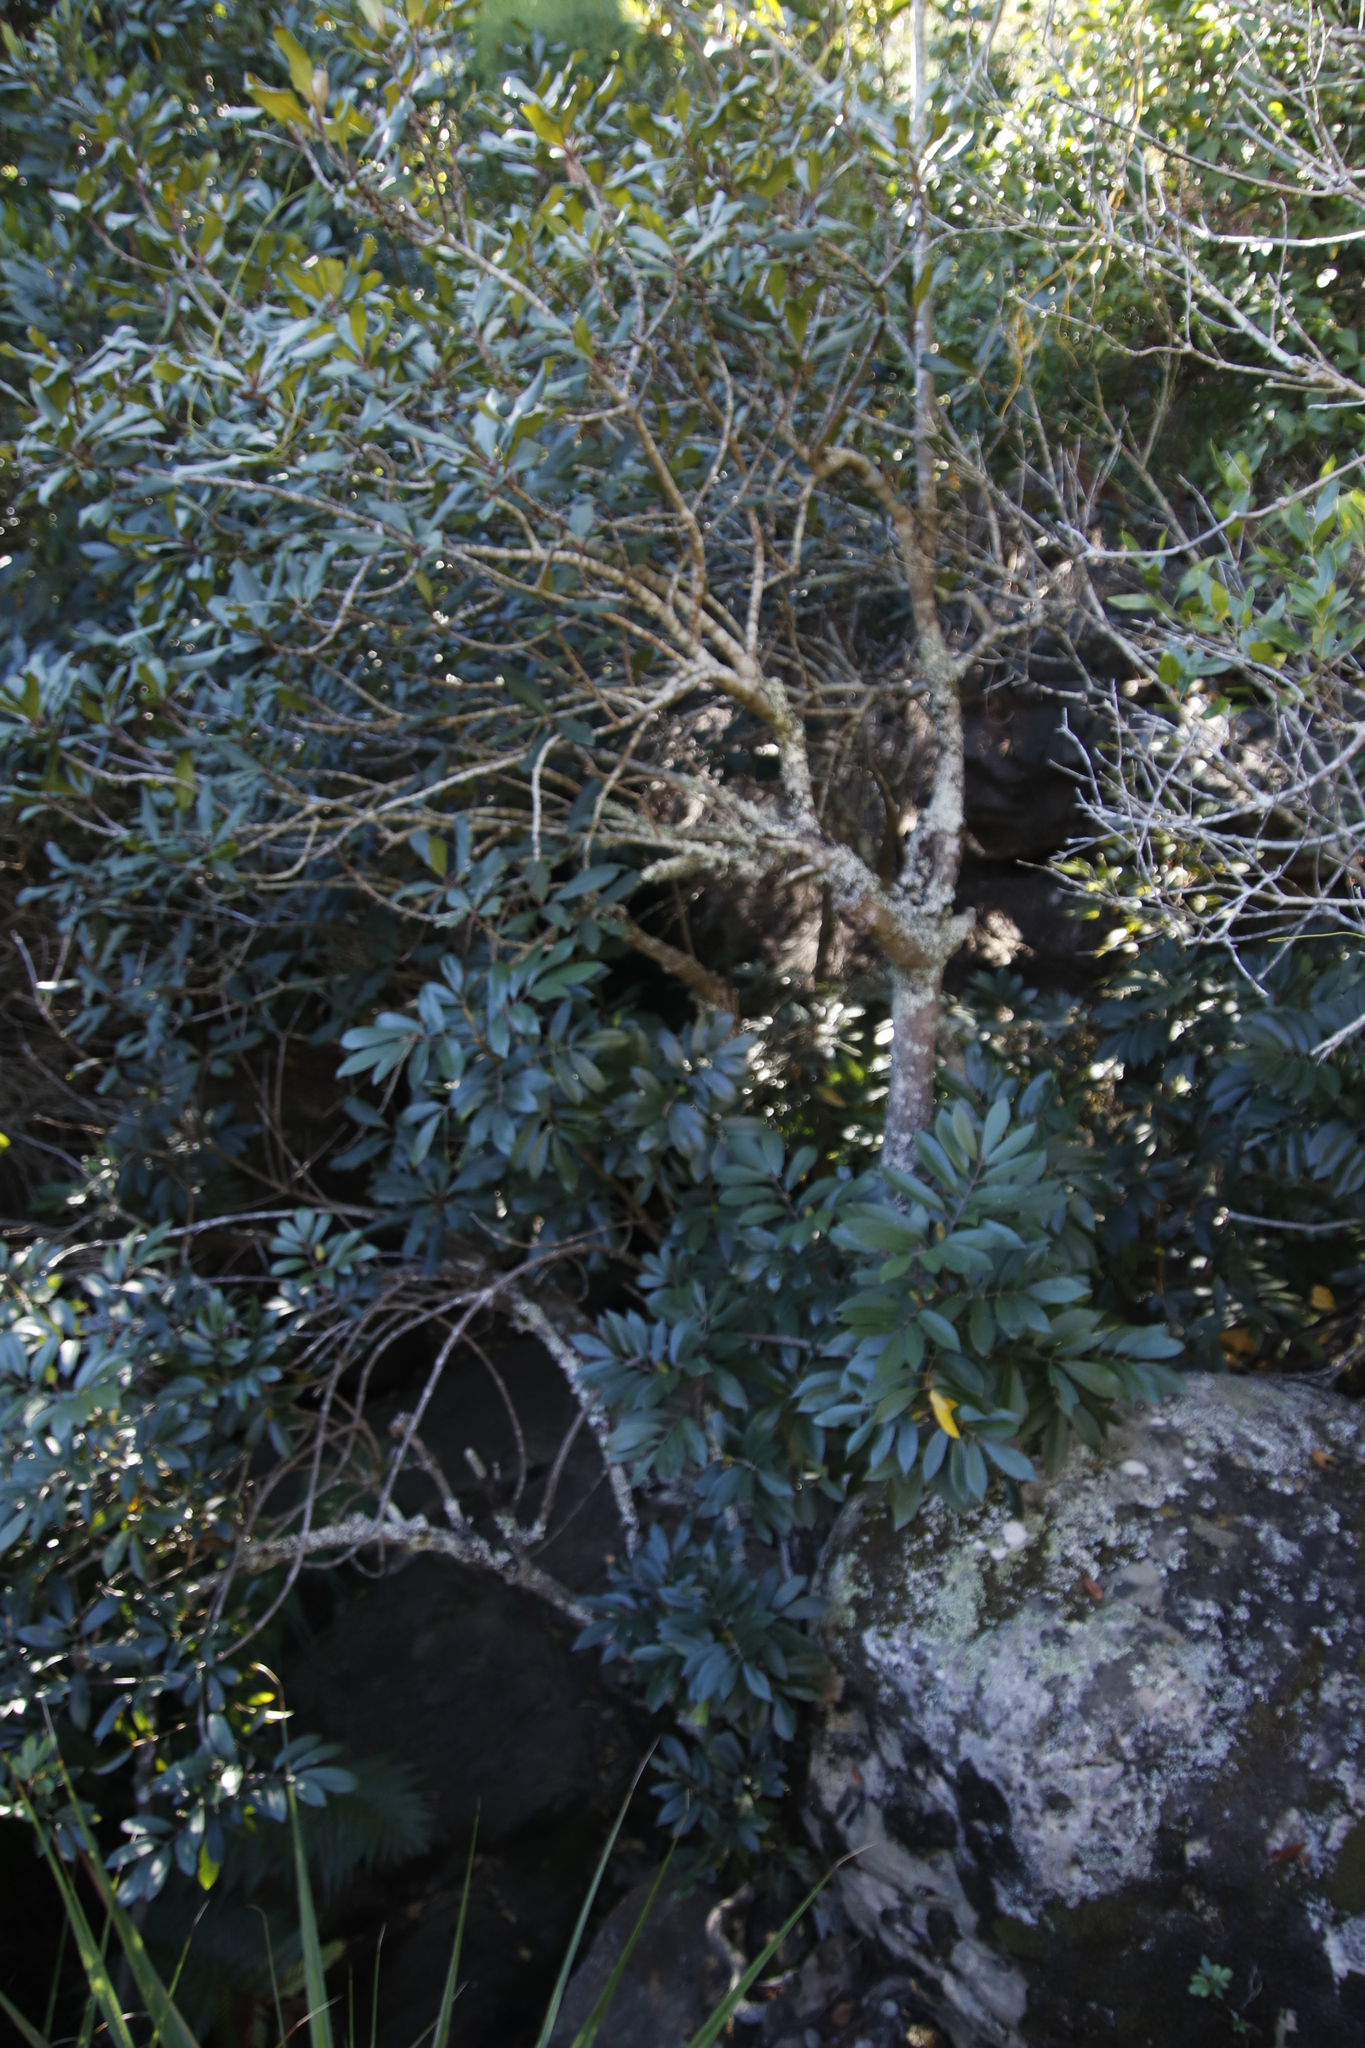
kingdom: Plantae
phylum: Tracheophyta
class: Magnoliopsida
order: Ericales
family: Primulaceae
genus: Myrsine
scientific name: Myrsine melanophloeos
